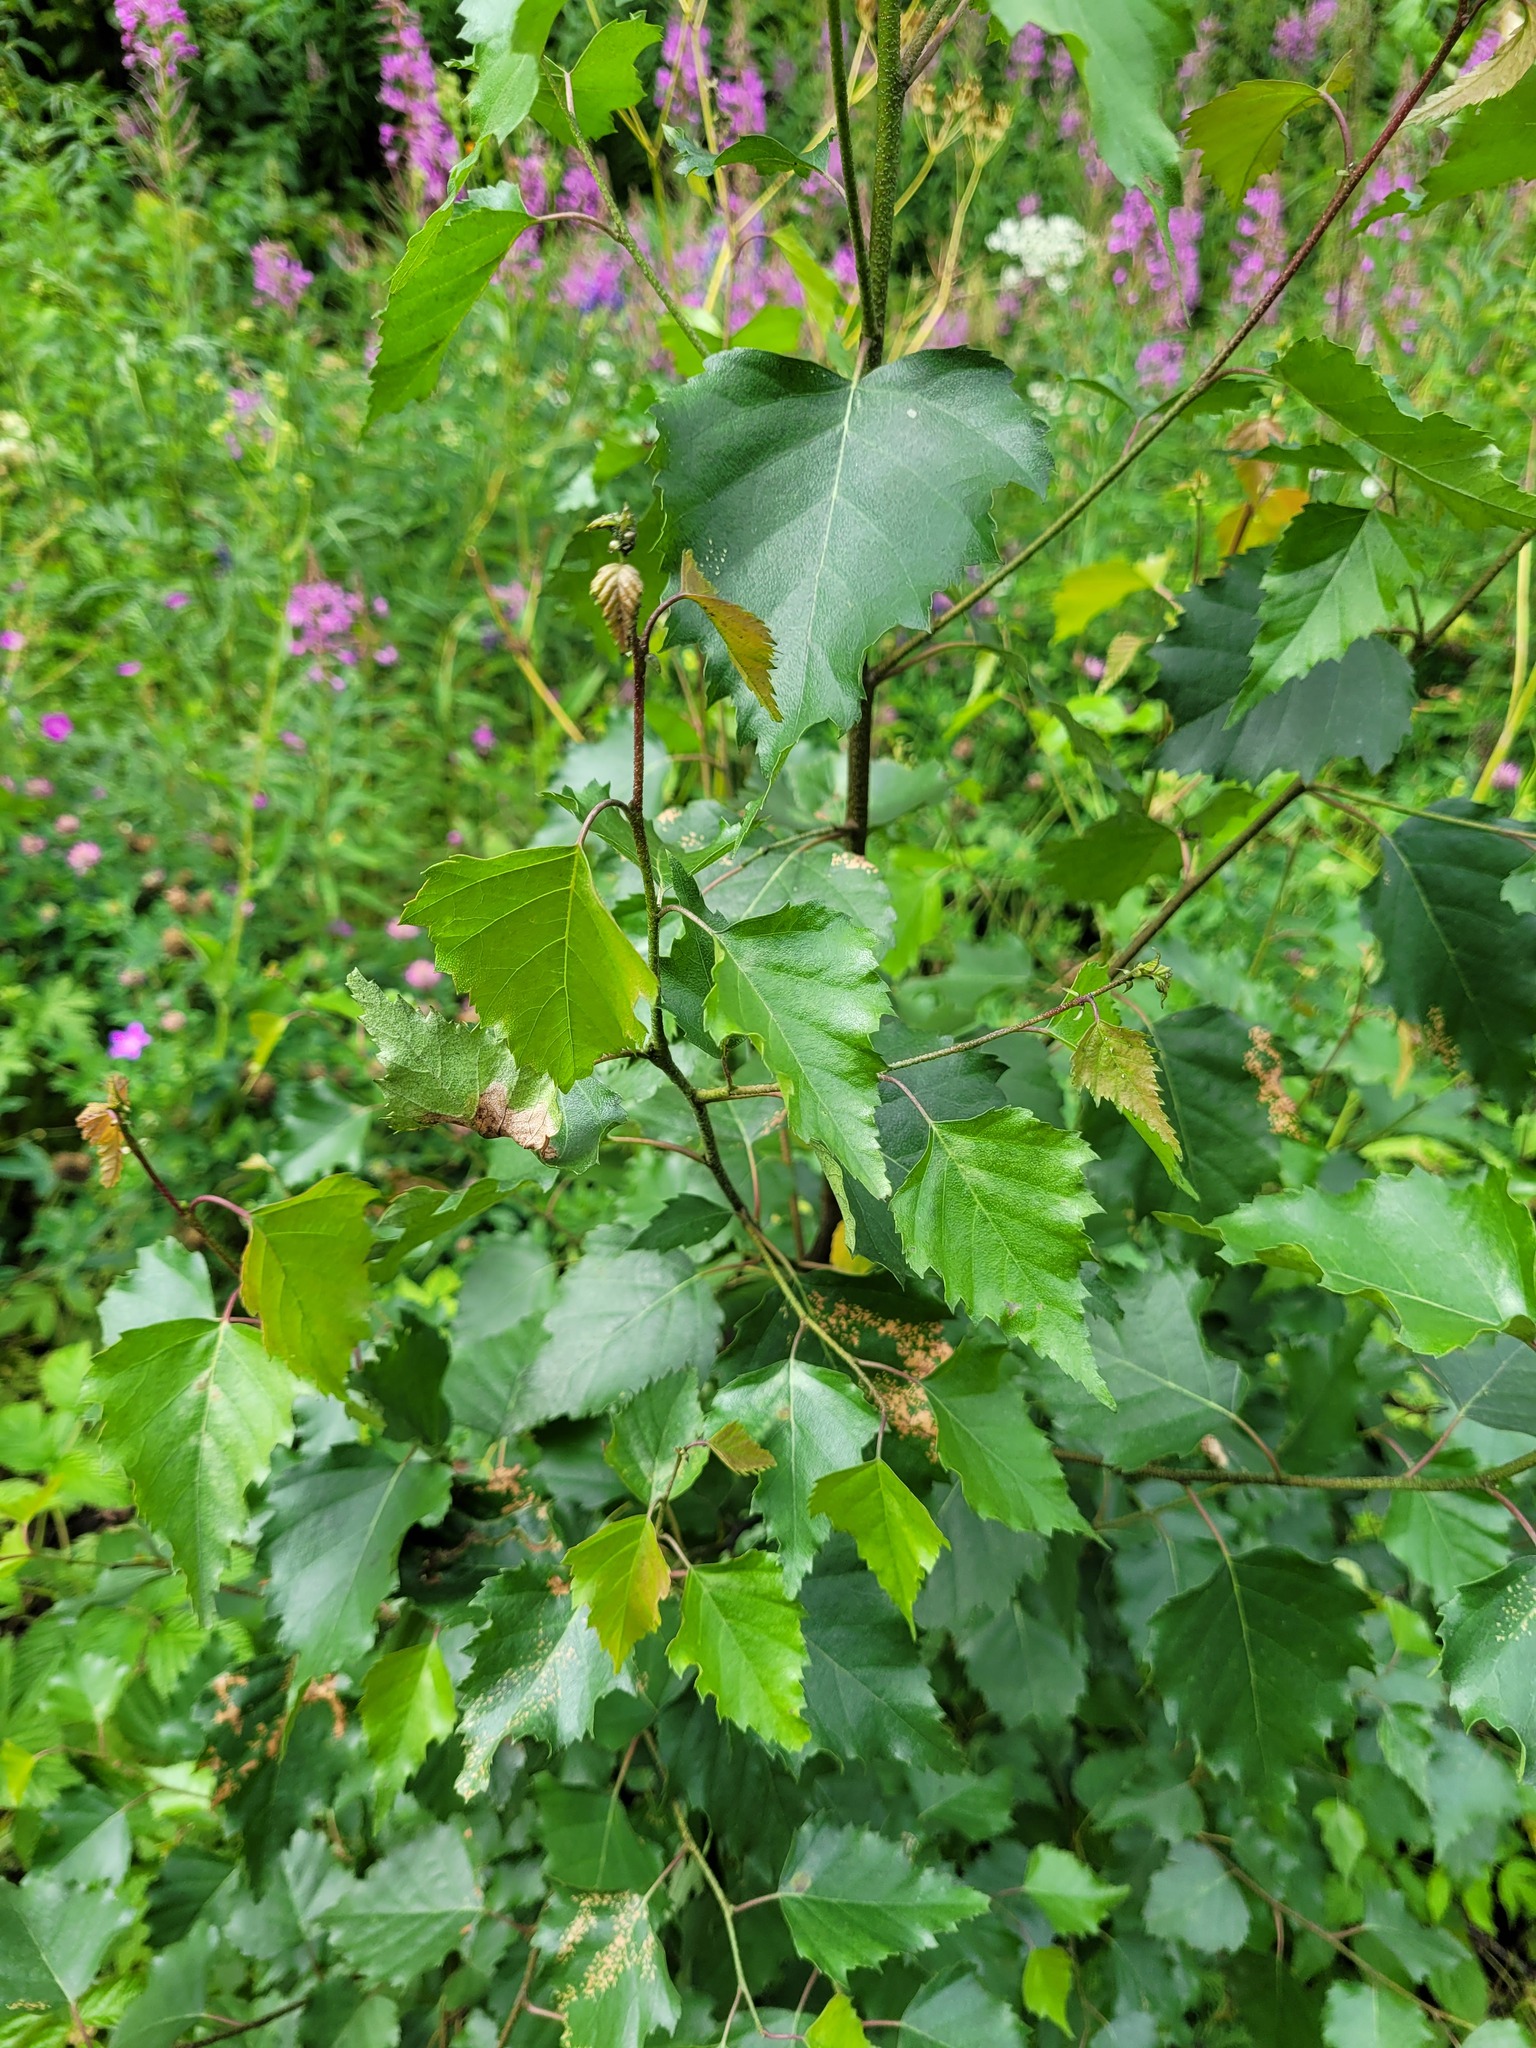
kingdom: Plantae
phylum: Tracheophyta
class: Magnoliopsida
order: Fagales
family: Betulaceae
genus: Betula
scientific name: Betula pendula
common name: Silver birch
